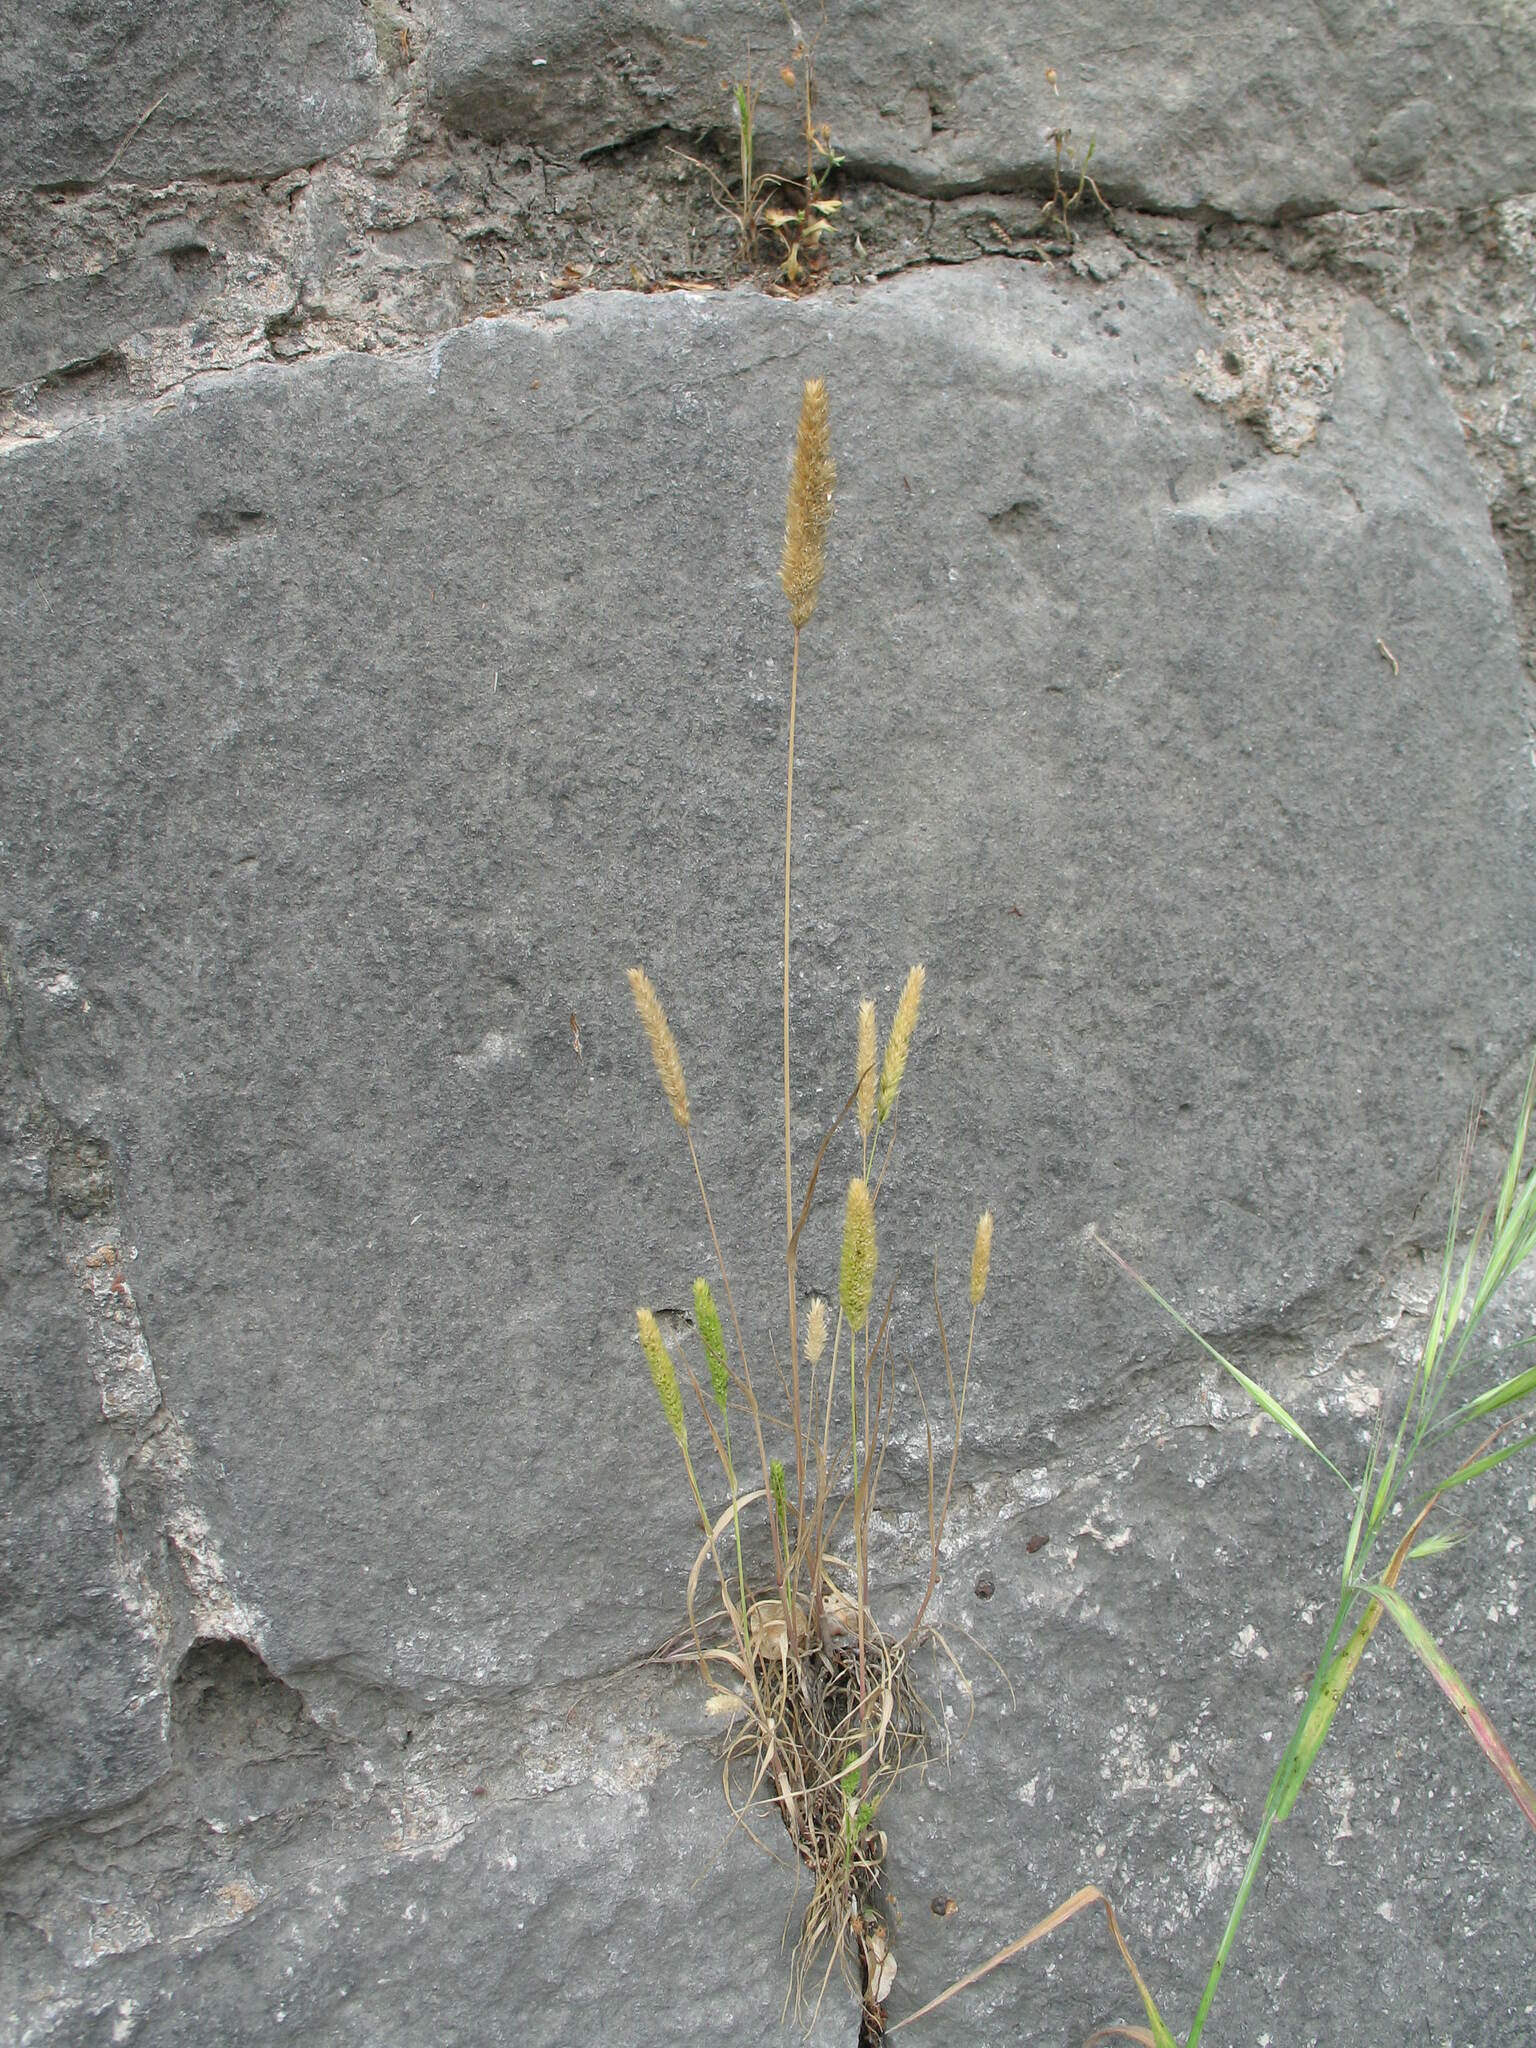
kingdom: Plantae
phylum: Tracheophyta
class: Liliopsida
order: Poales
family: Poaceae
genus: Rostraria
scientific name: Rostraria cristata
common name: Mediterranean hair-grass
